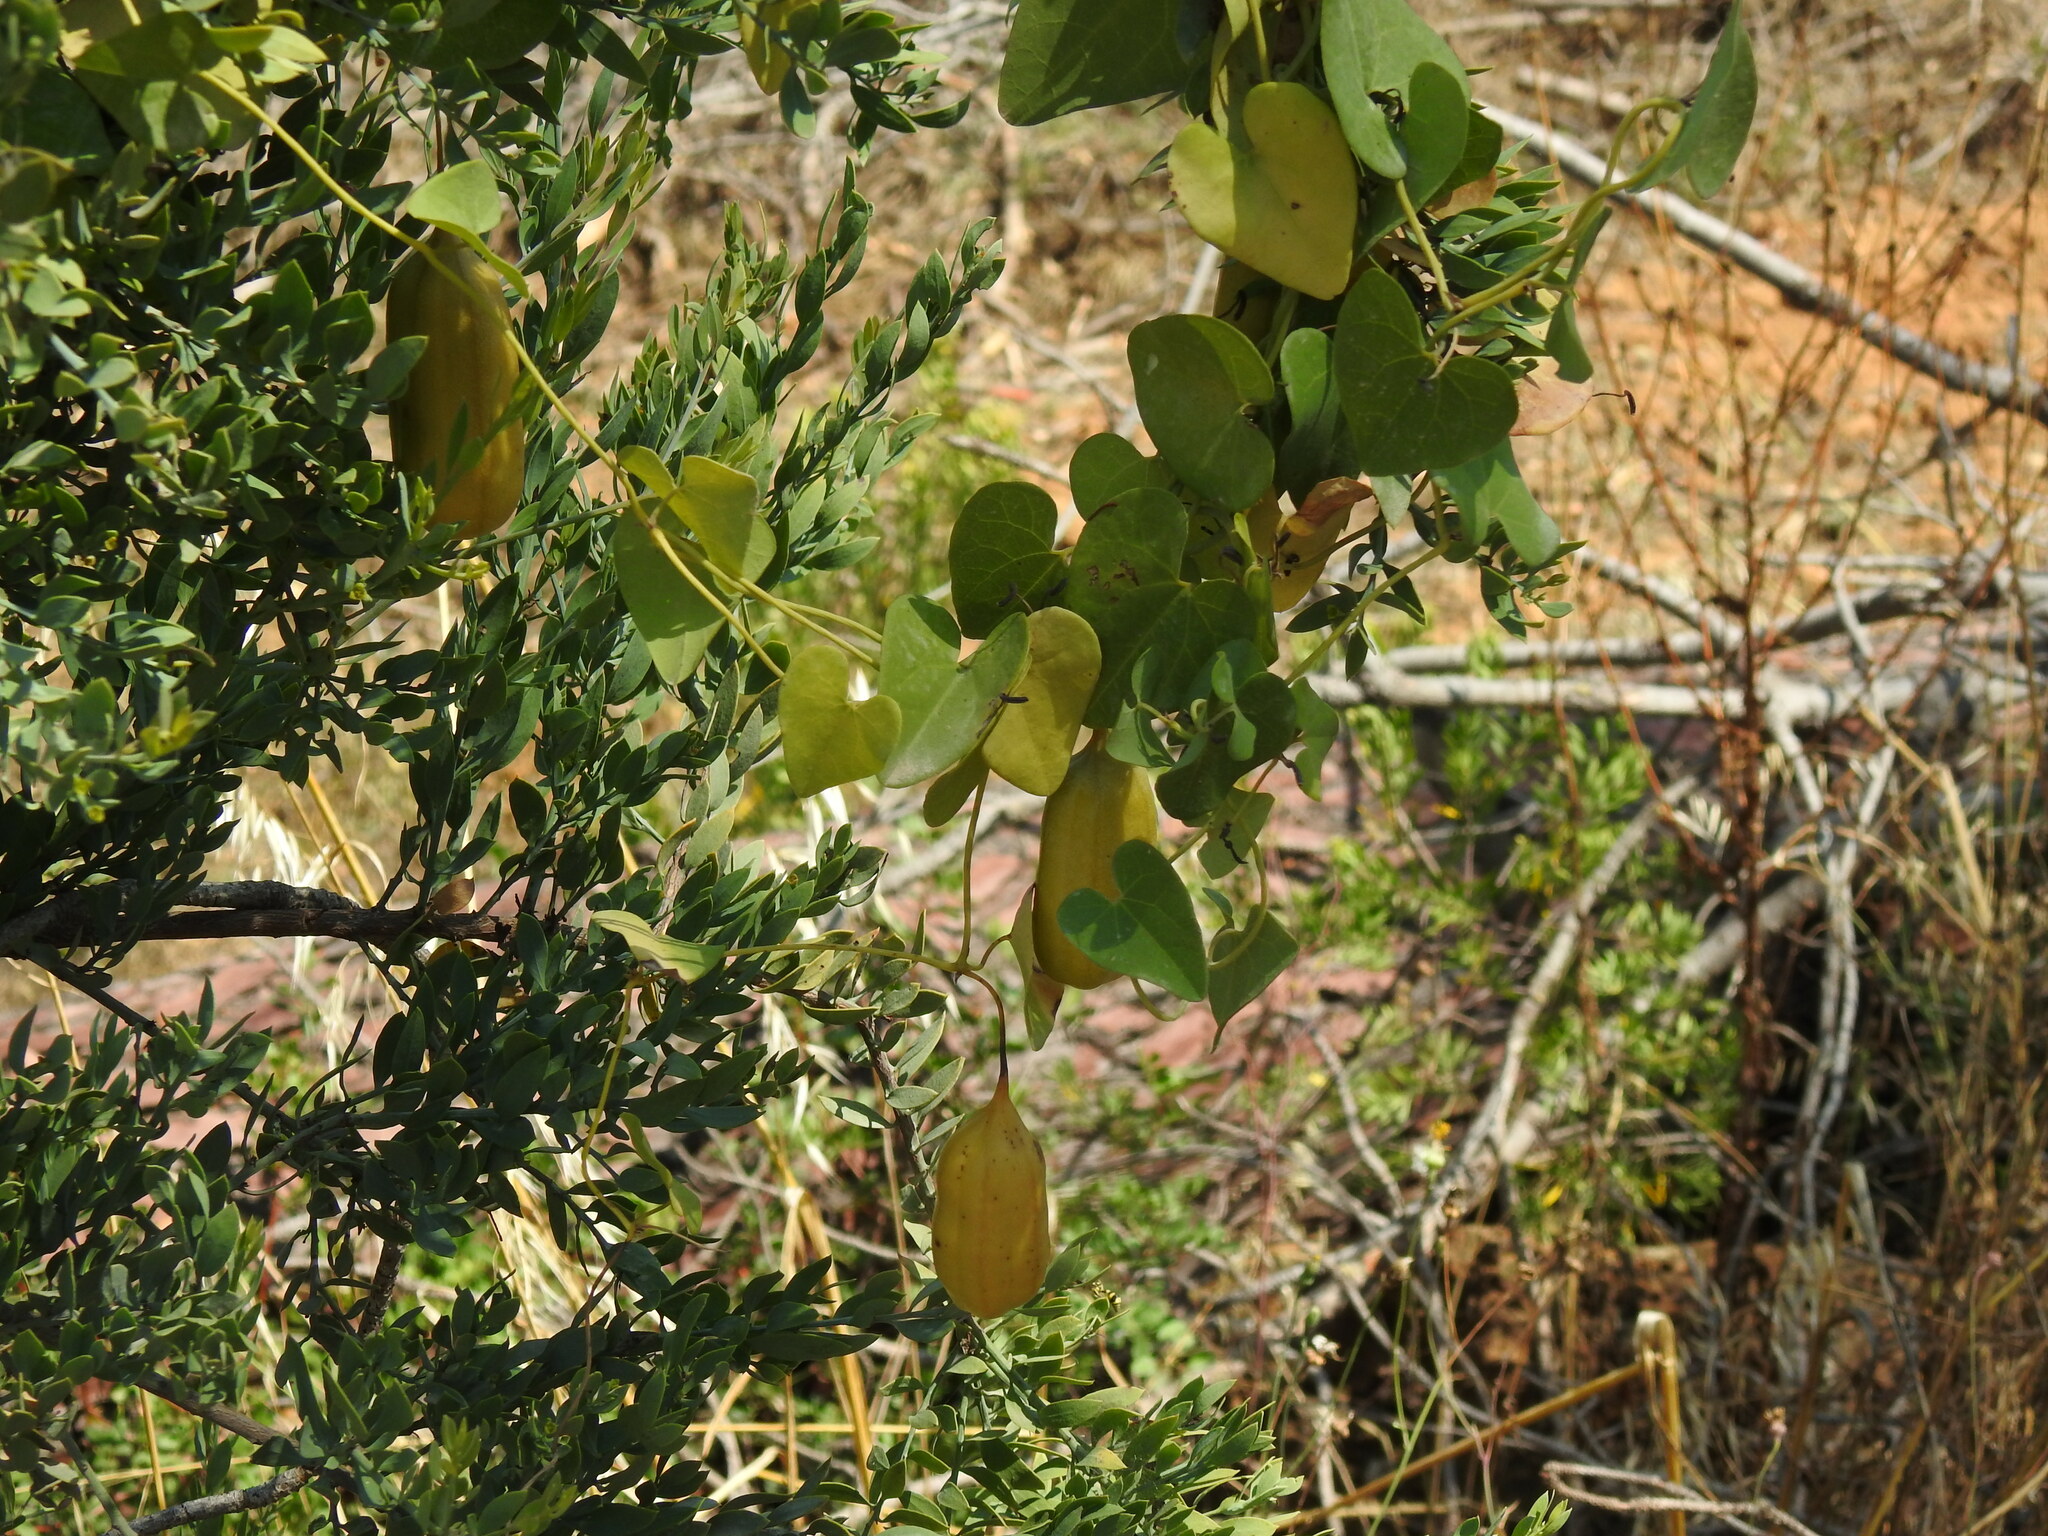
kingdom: Plantae
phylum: Tracheophyta
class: Magnoliopsida
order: Piperales
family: Aristolochiaceae
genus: Aristolochia
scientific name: Aristolochia baetica
